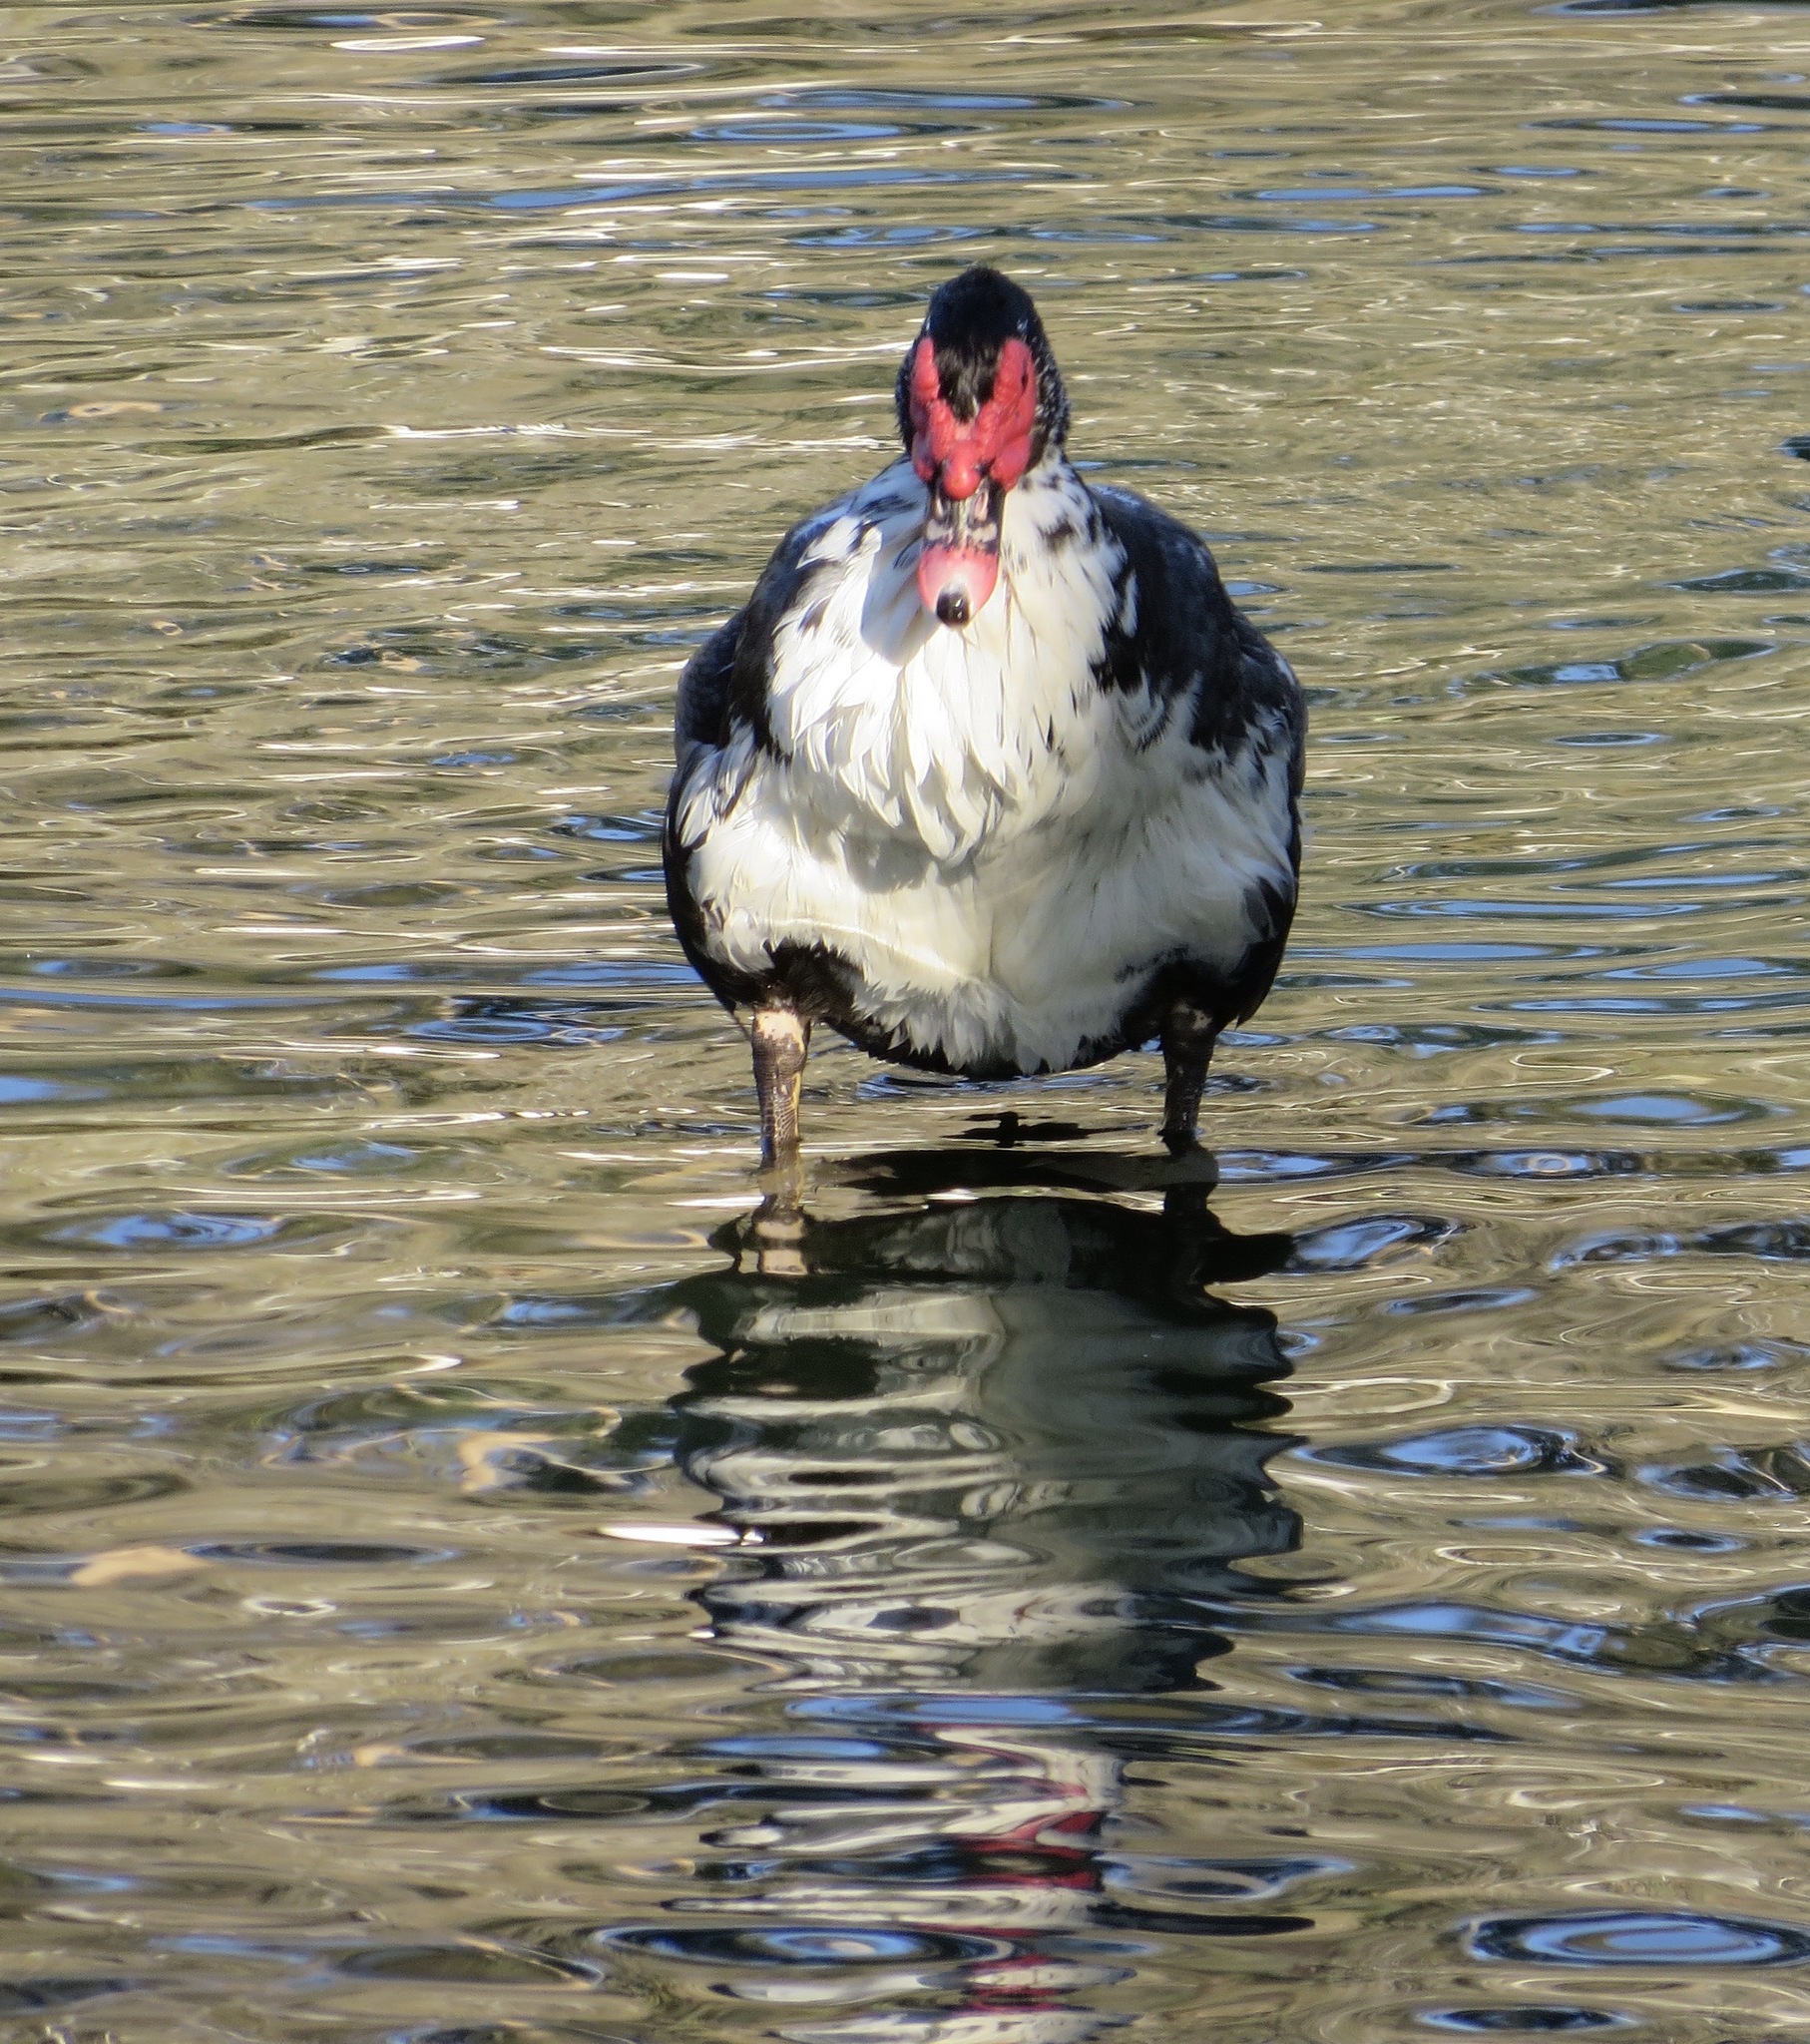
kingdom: Animalia
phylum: Chordata
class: Aves
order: Anseriformes
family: Anatidae
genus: Cairina
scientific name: Cairina moschata
